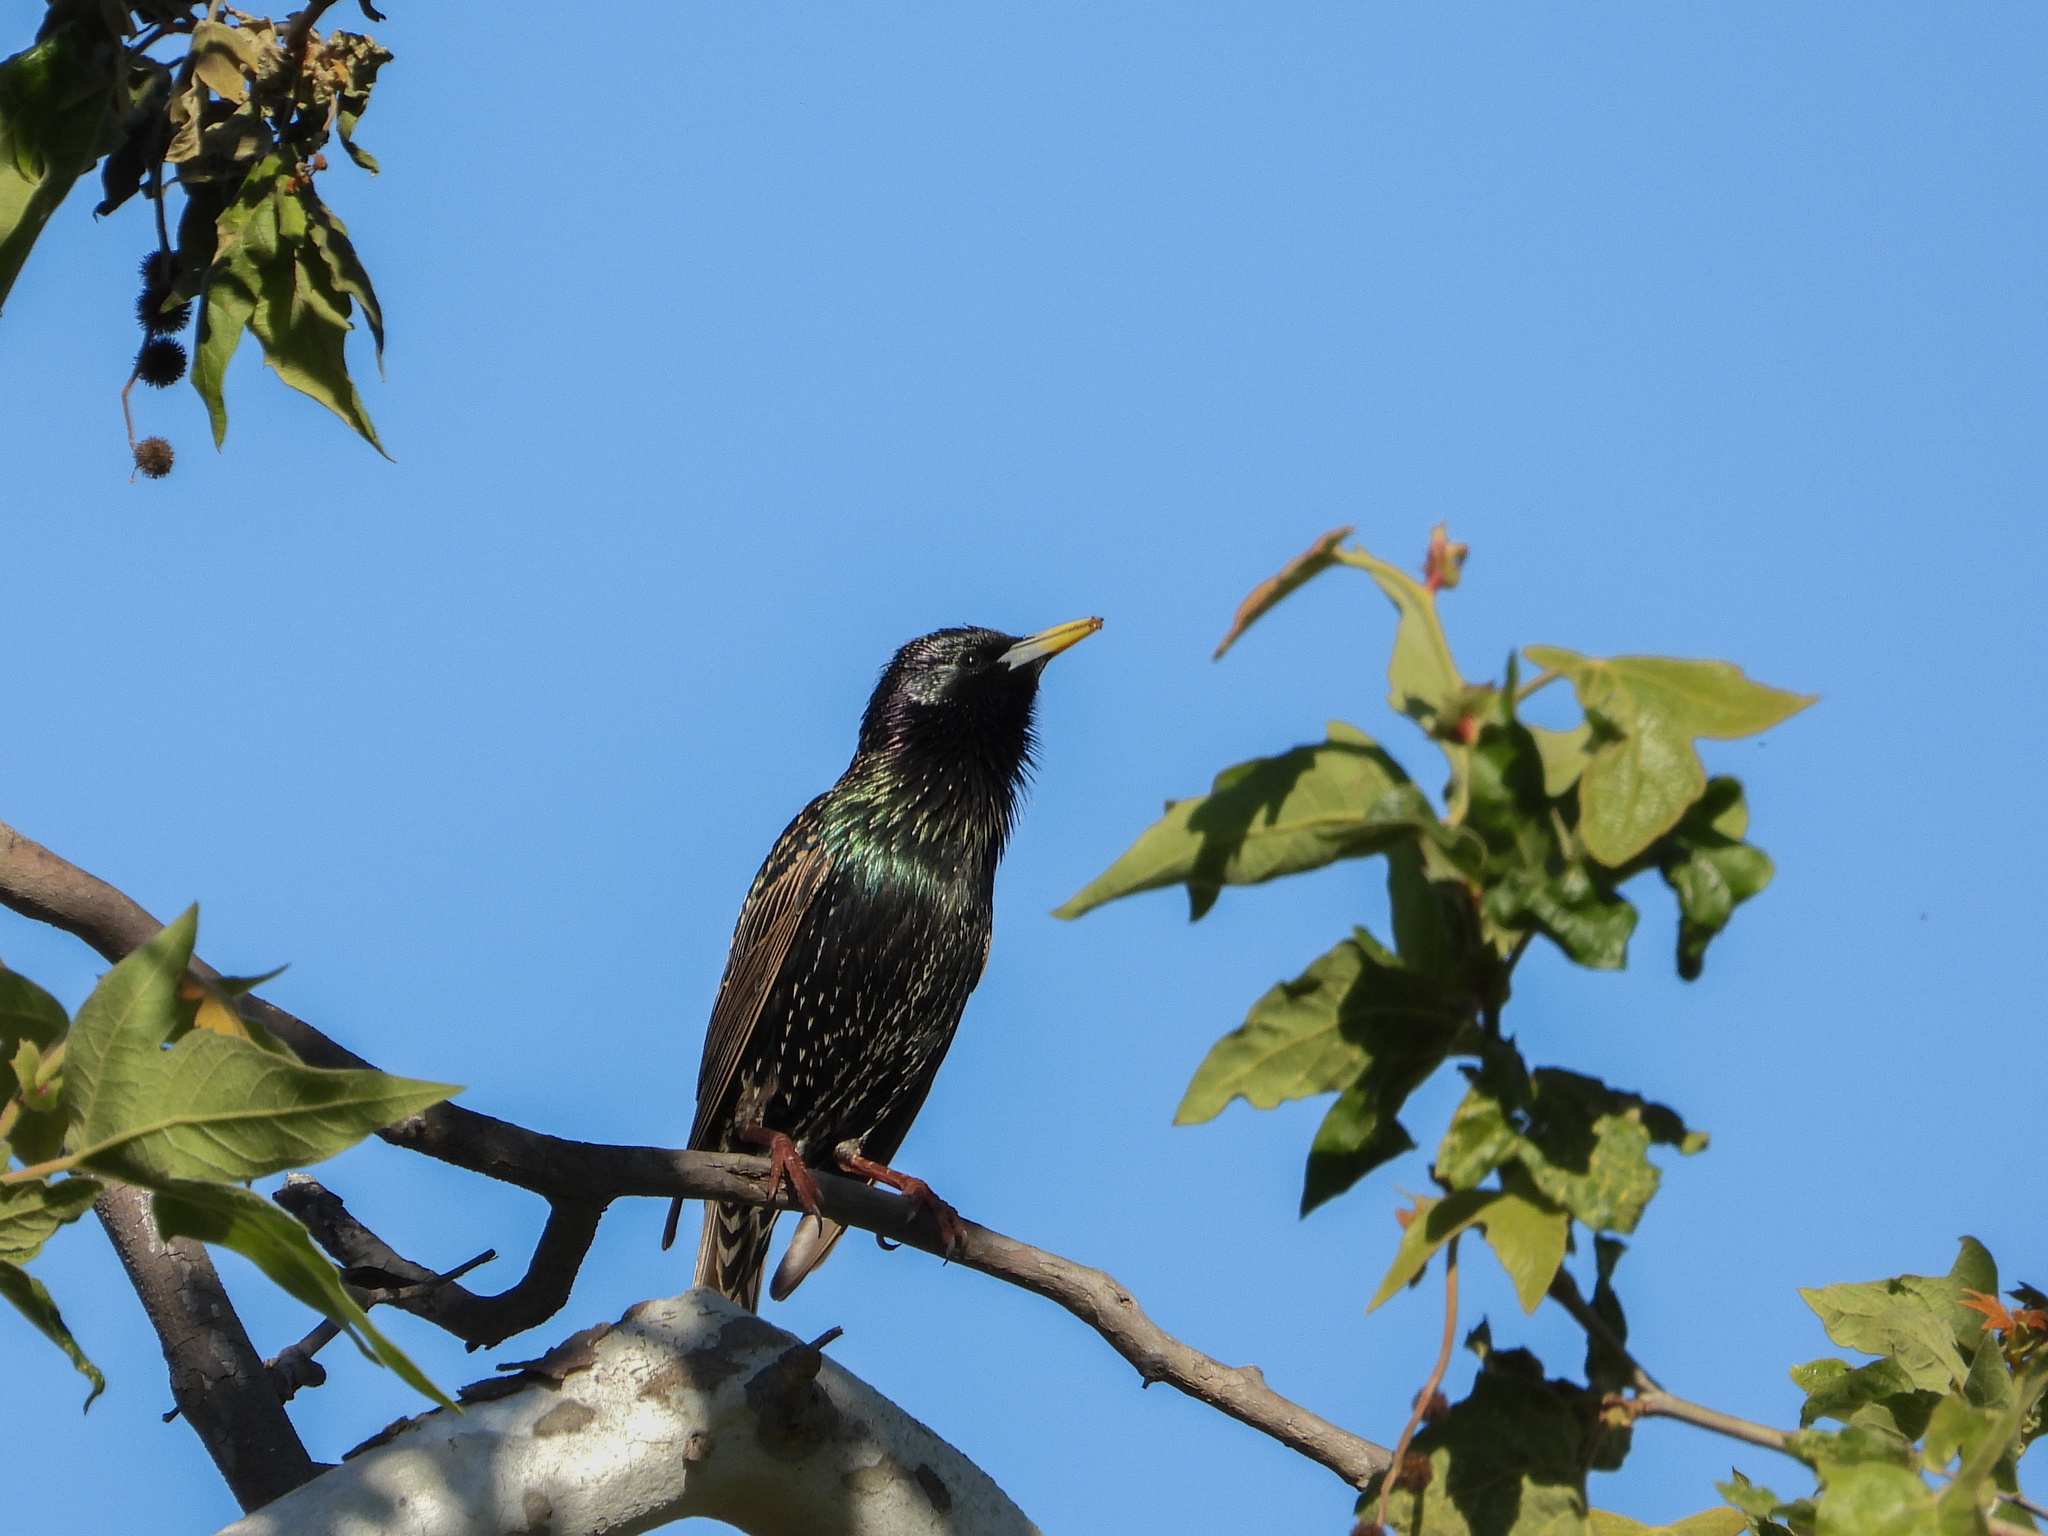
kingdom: Animalia
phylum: Chordata
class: Aves
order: Passeriformes
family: Sturnidae
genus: Sturnus
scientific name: Sturnus vulgaris
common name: Common starling
